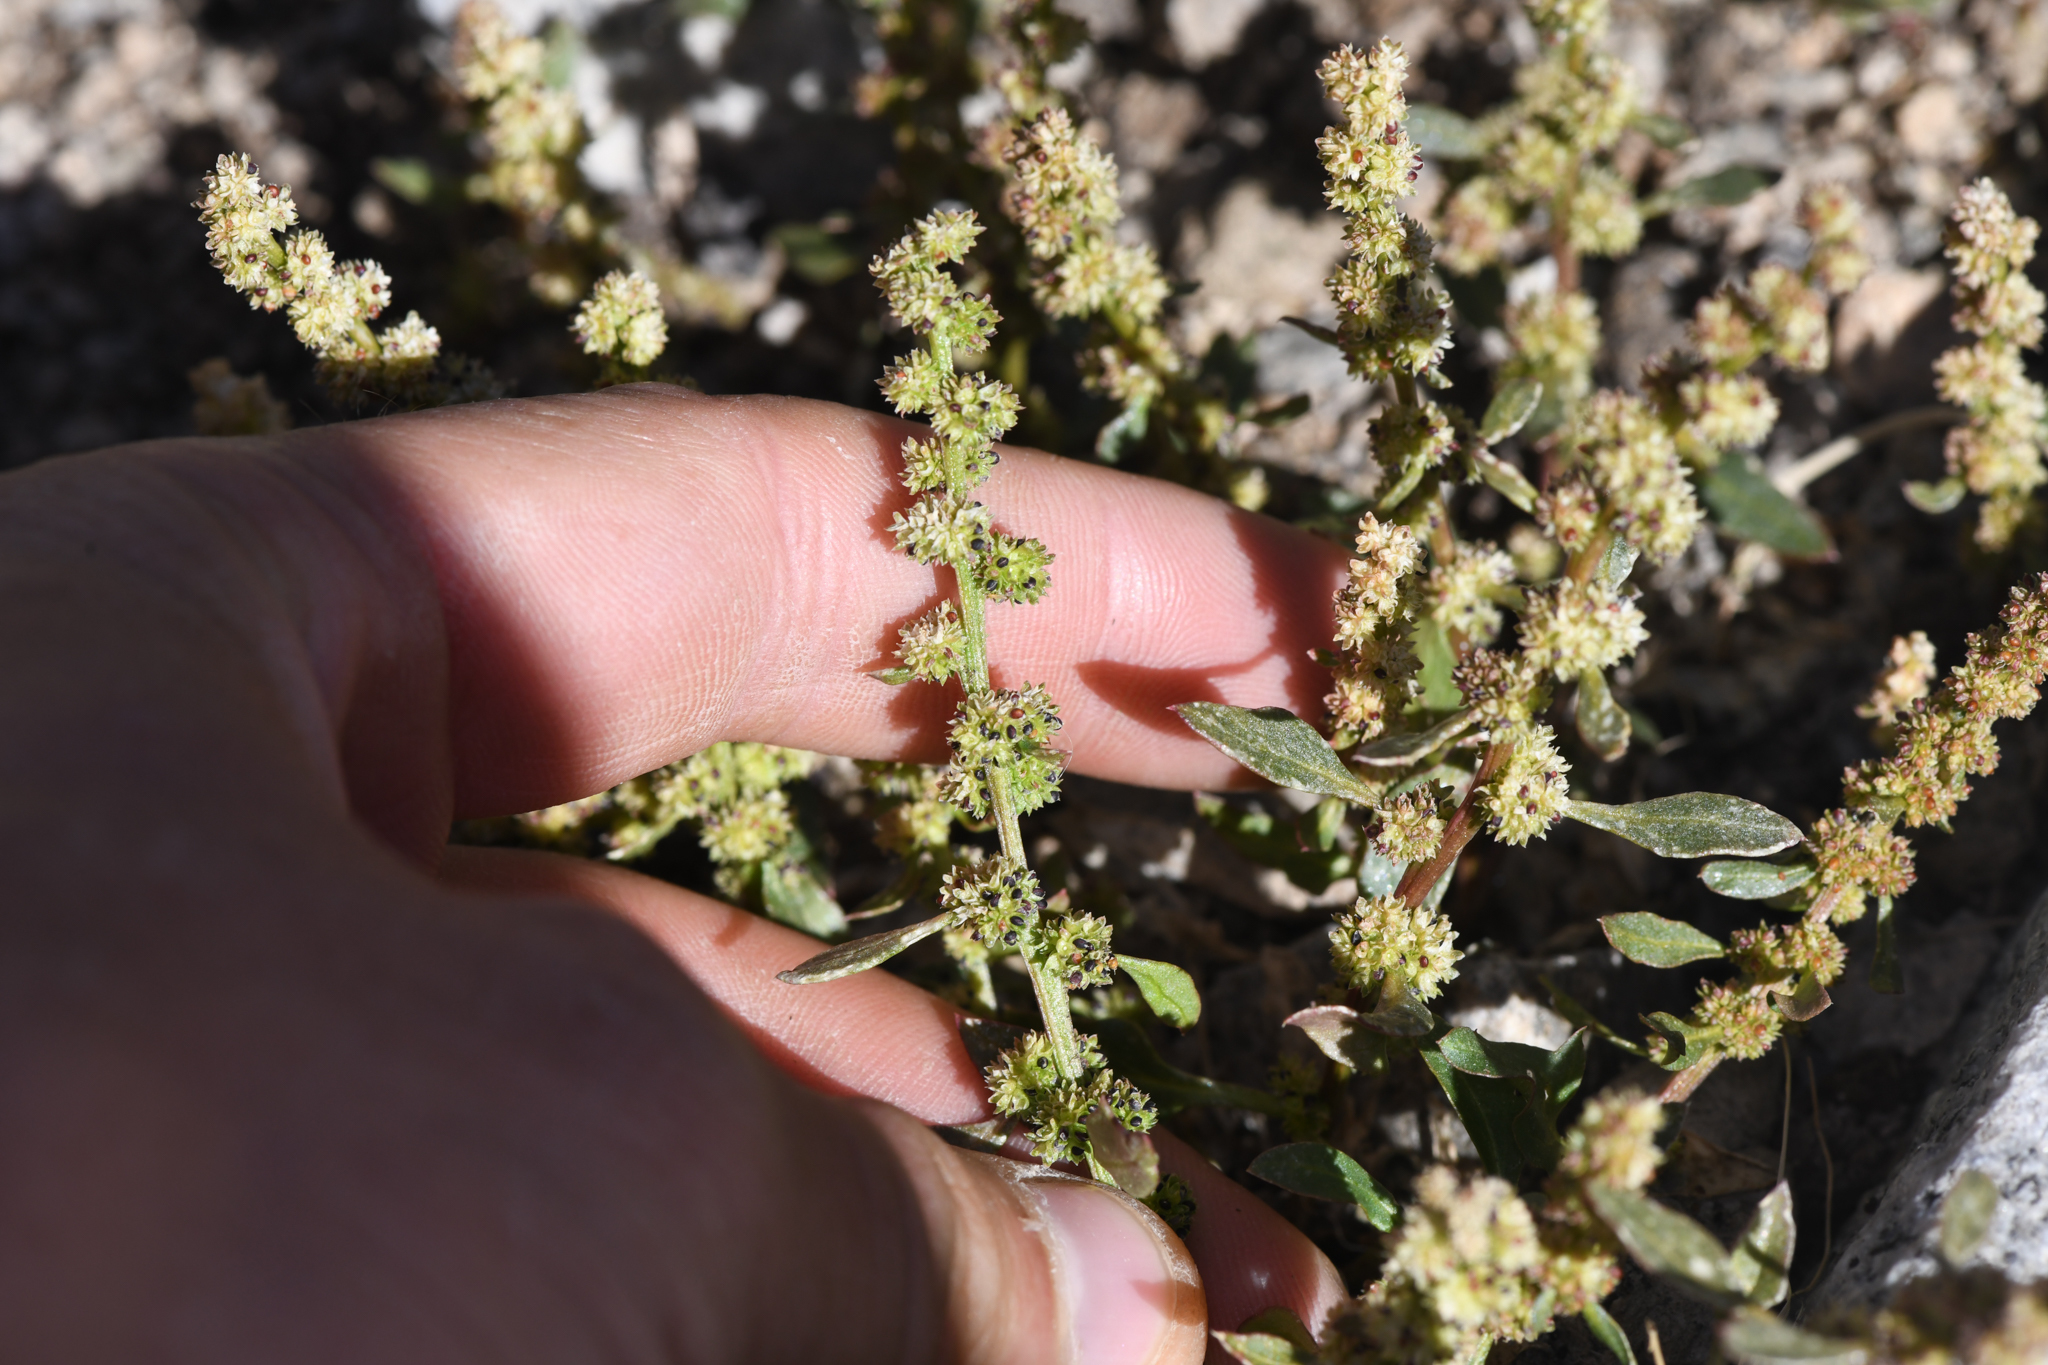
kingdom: Plantae
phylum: Tracheophyta
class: Magnoliopsida
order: Caryophyllales
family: Amaranthaceae
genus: Blitum
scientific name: Blitum capitatum
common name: Strawberry-blight
